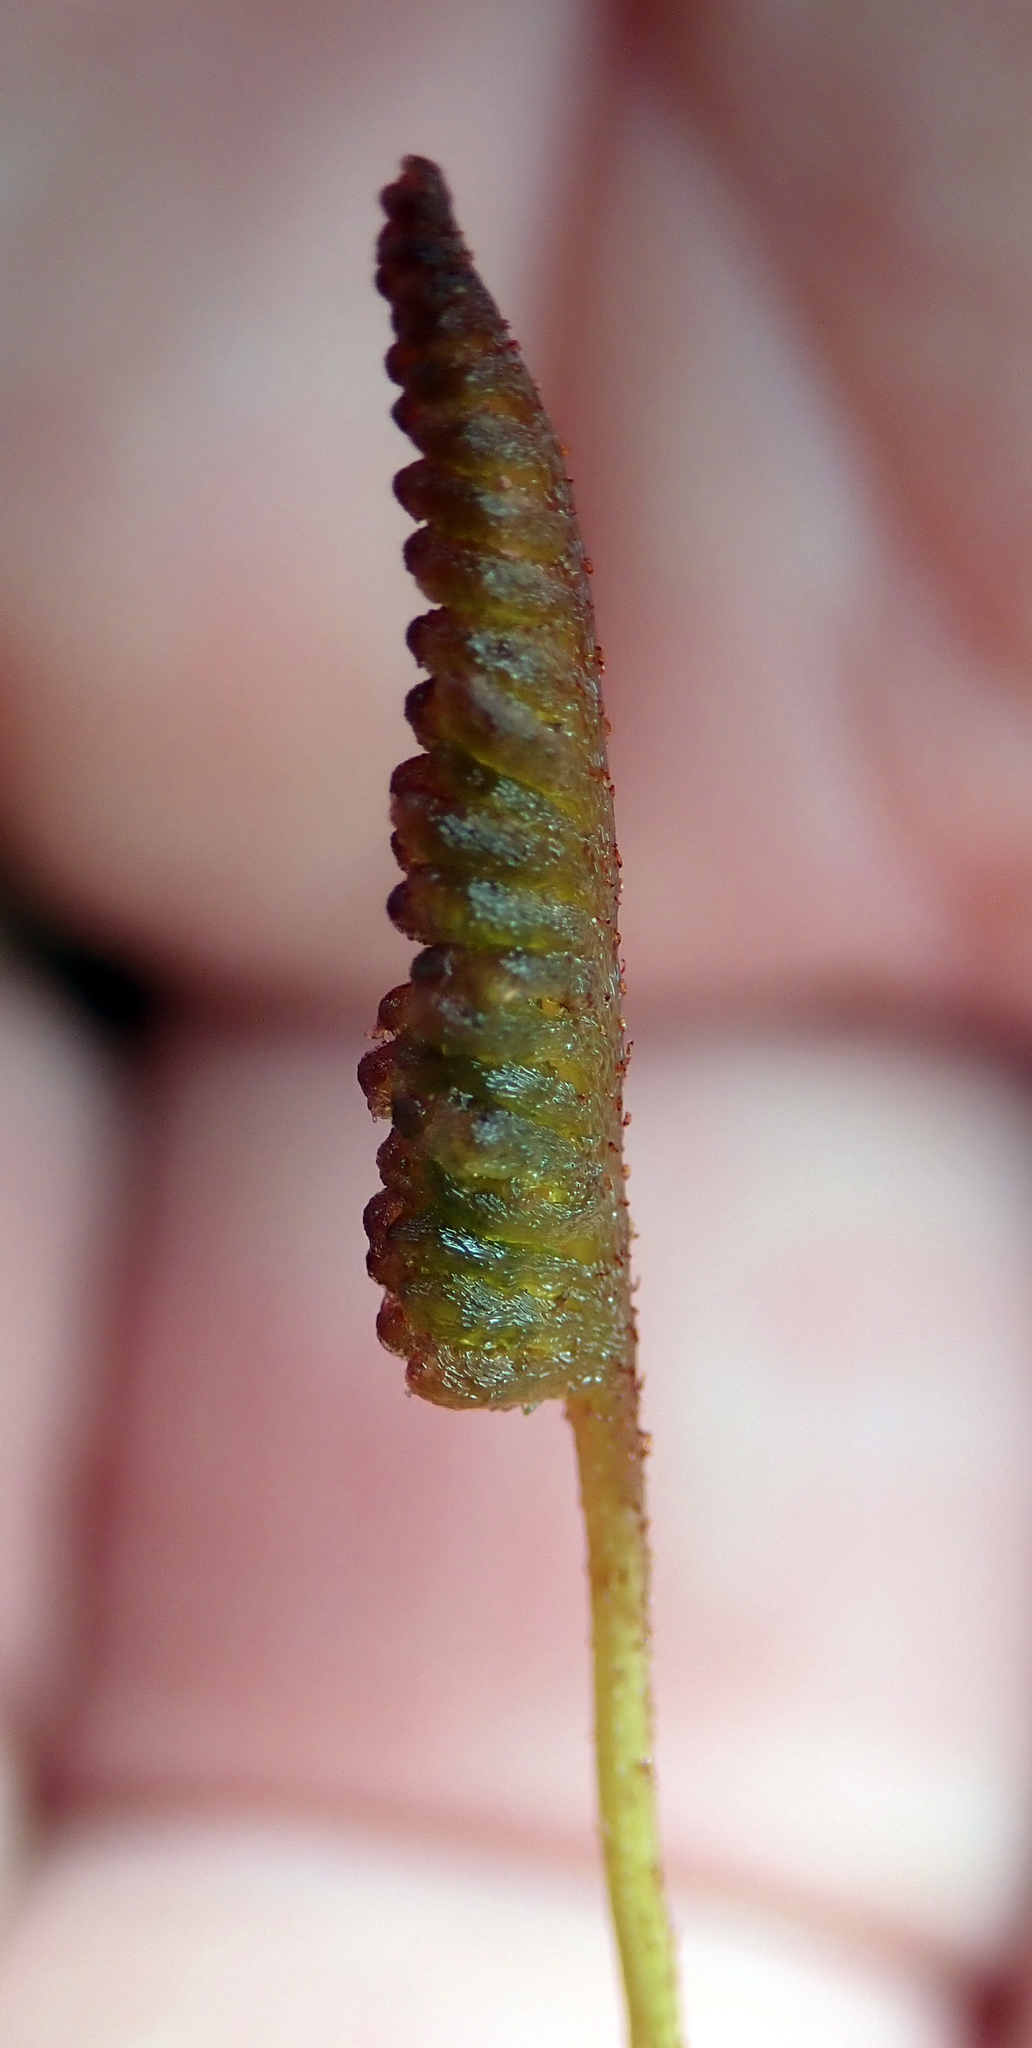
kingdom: Plantae
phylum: Tracheophyta
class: Polypodiopsida
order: Schizaeales
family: Schizaeaceae
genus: Microschizaea
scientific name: Microschizaea fistulosa
